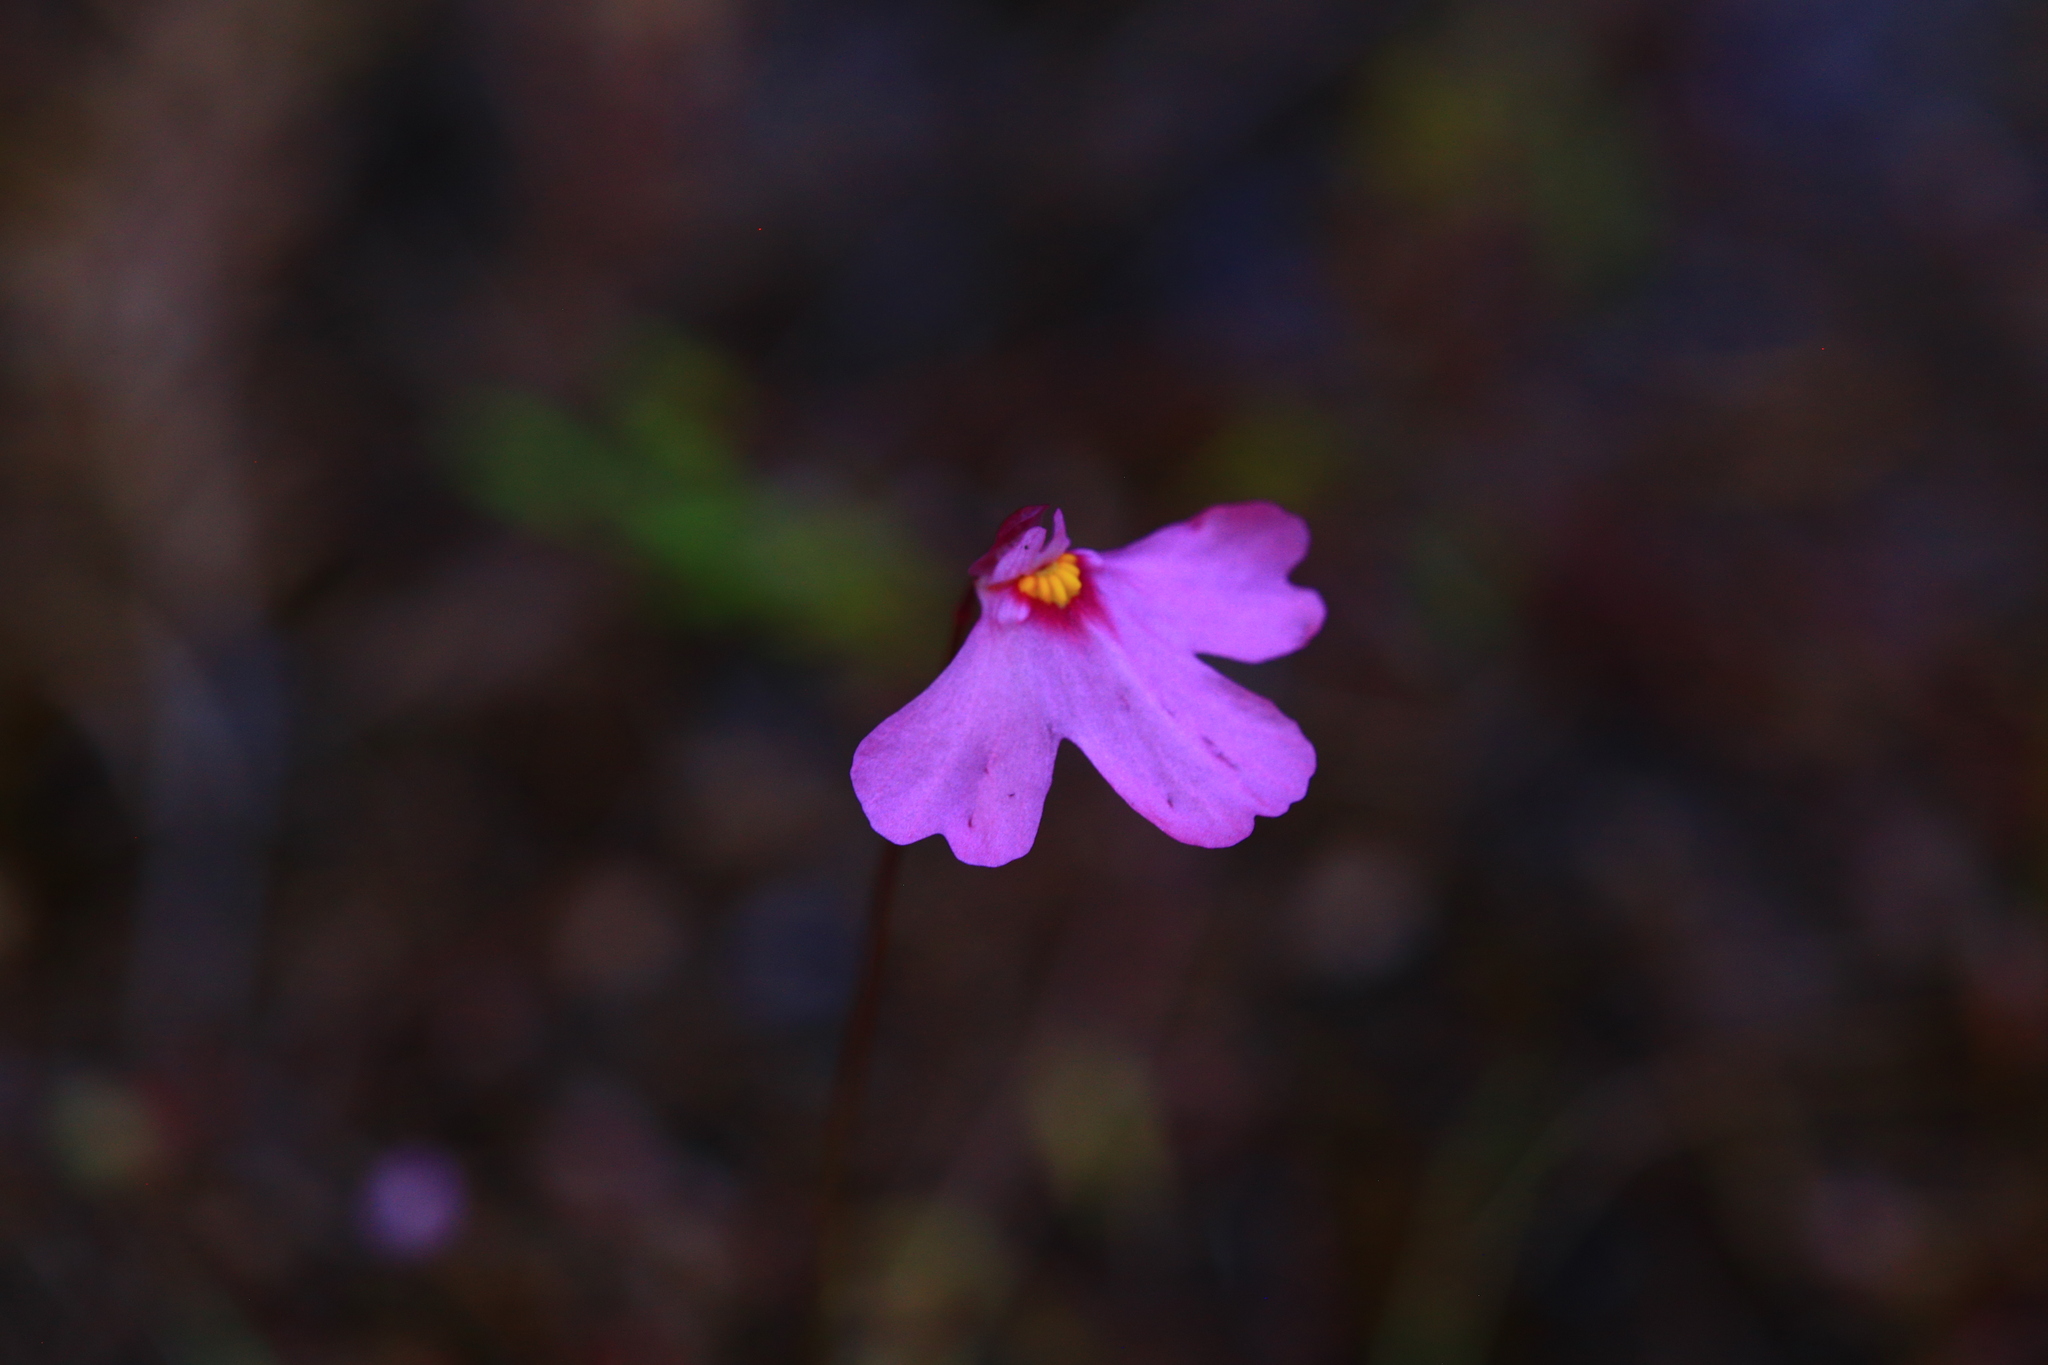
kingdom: Plantae
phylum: Tracheophyta
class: Magnoliopsida
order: Lamiales
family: Lentibulariaceae
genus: Utricularia
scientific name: Utricularia multifida
